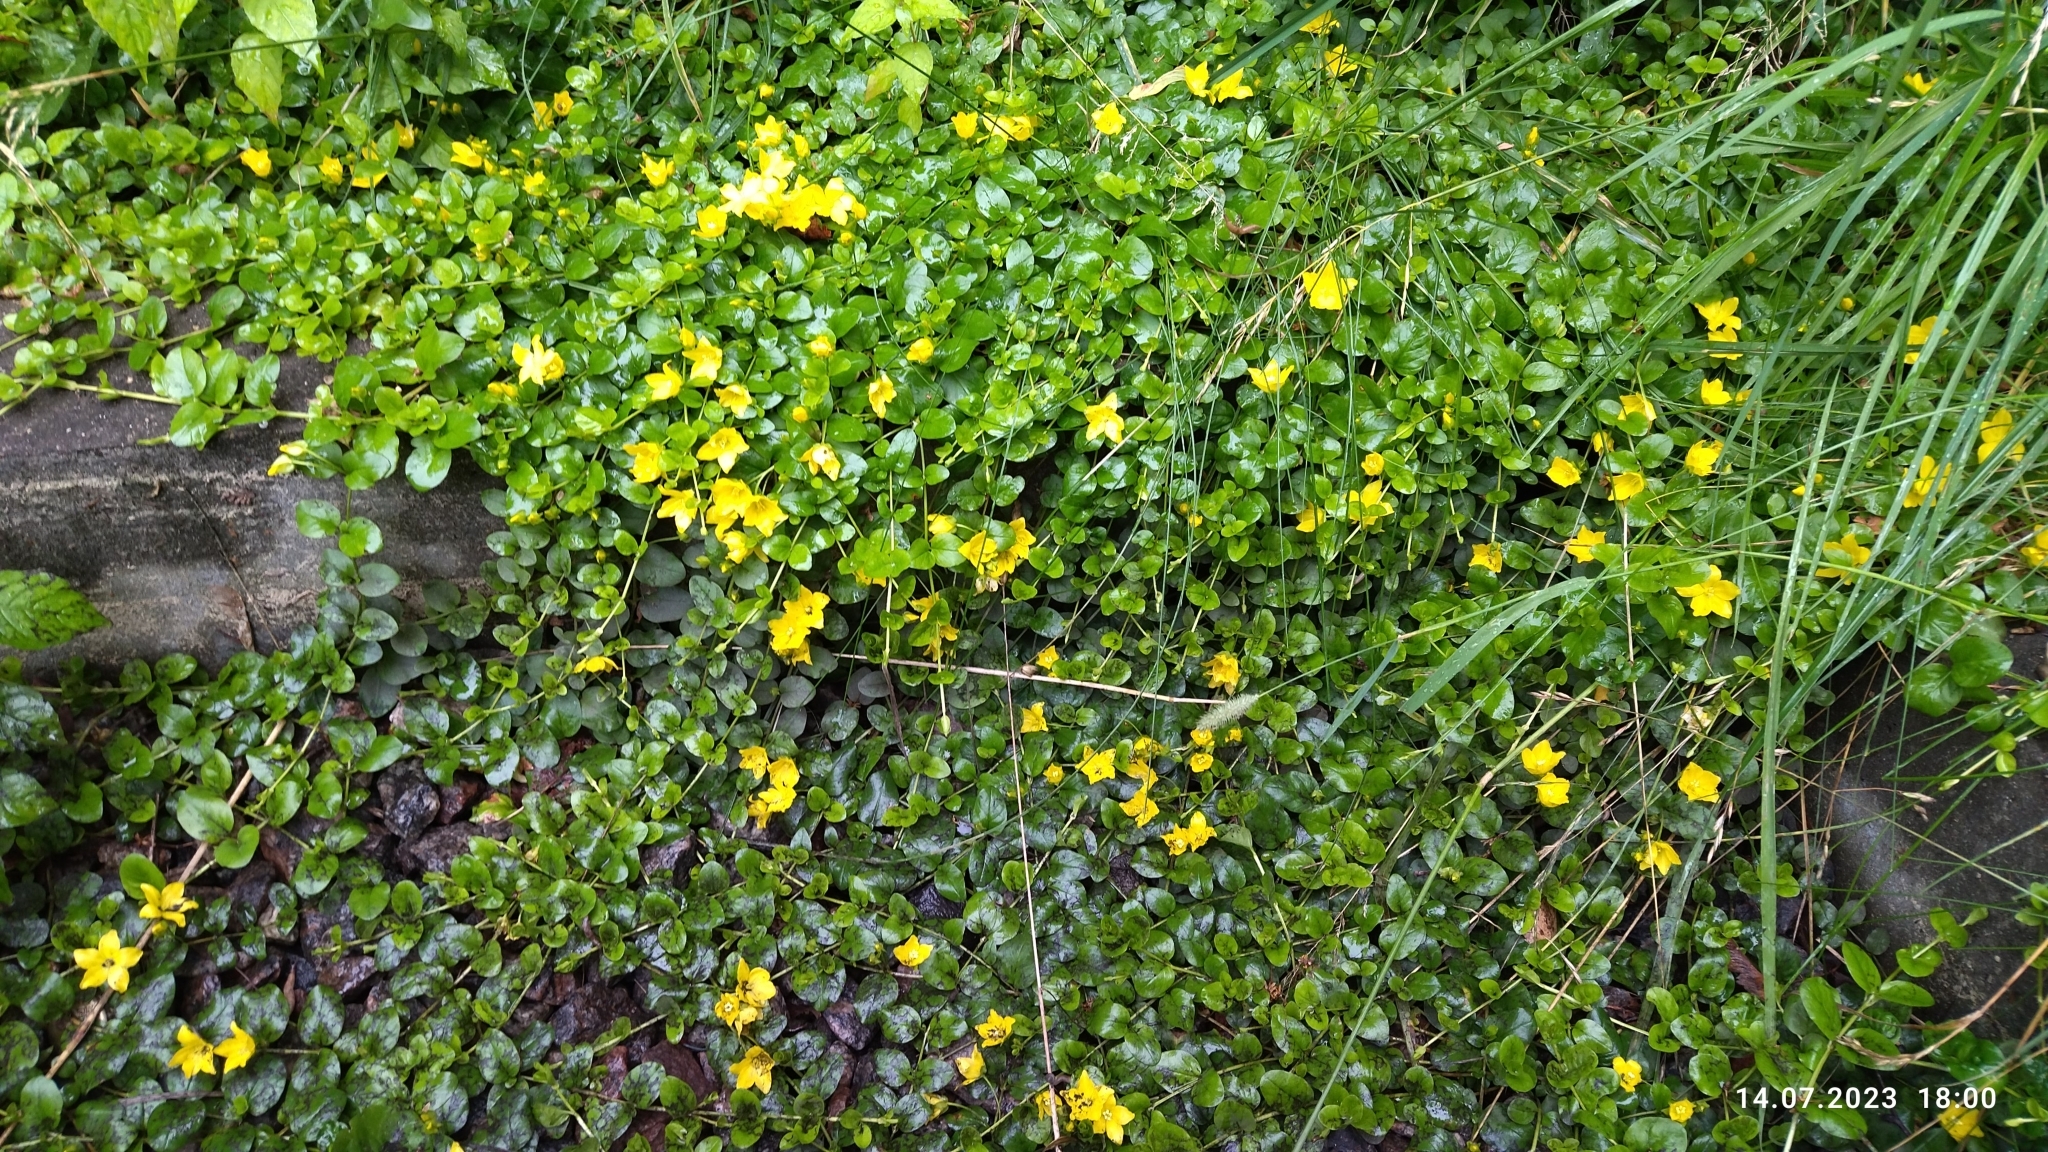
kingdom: Plantae
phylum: Tracheophyta
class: Magnoliopsida
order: Ericales
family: Primulaceae
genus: Lysimachia
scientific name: Lysimachia nummularia
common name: Moneywort
